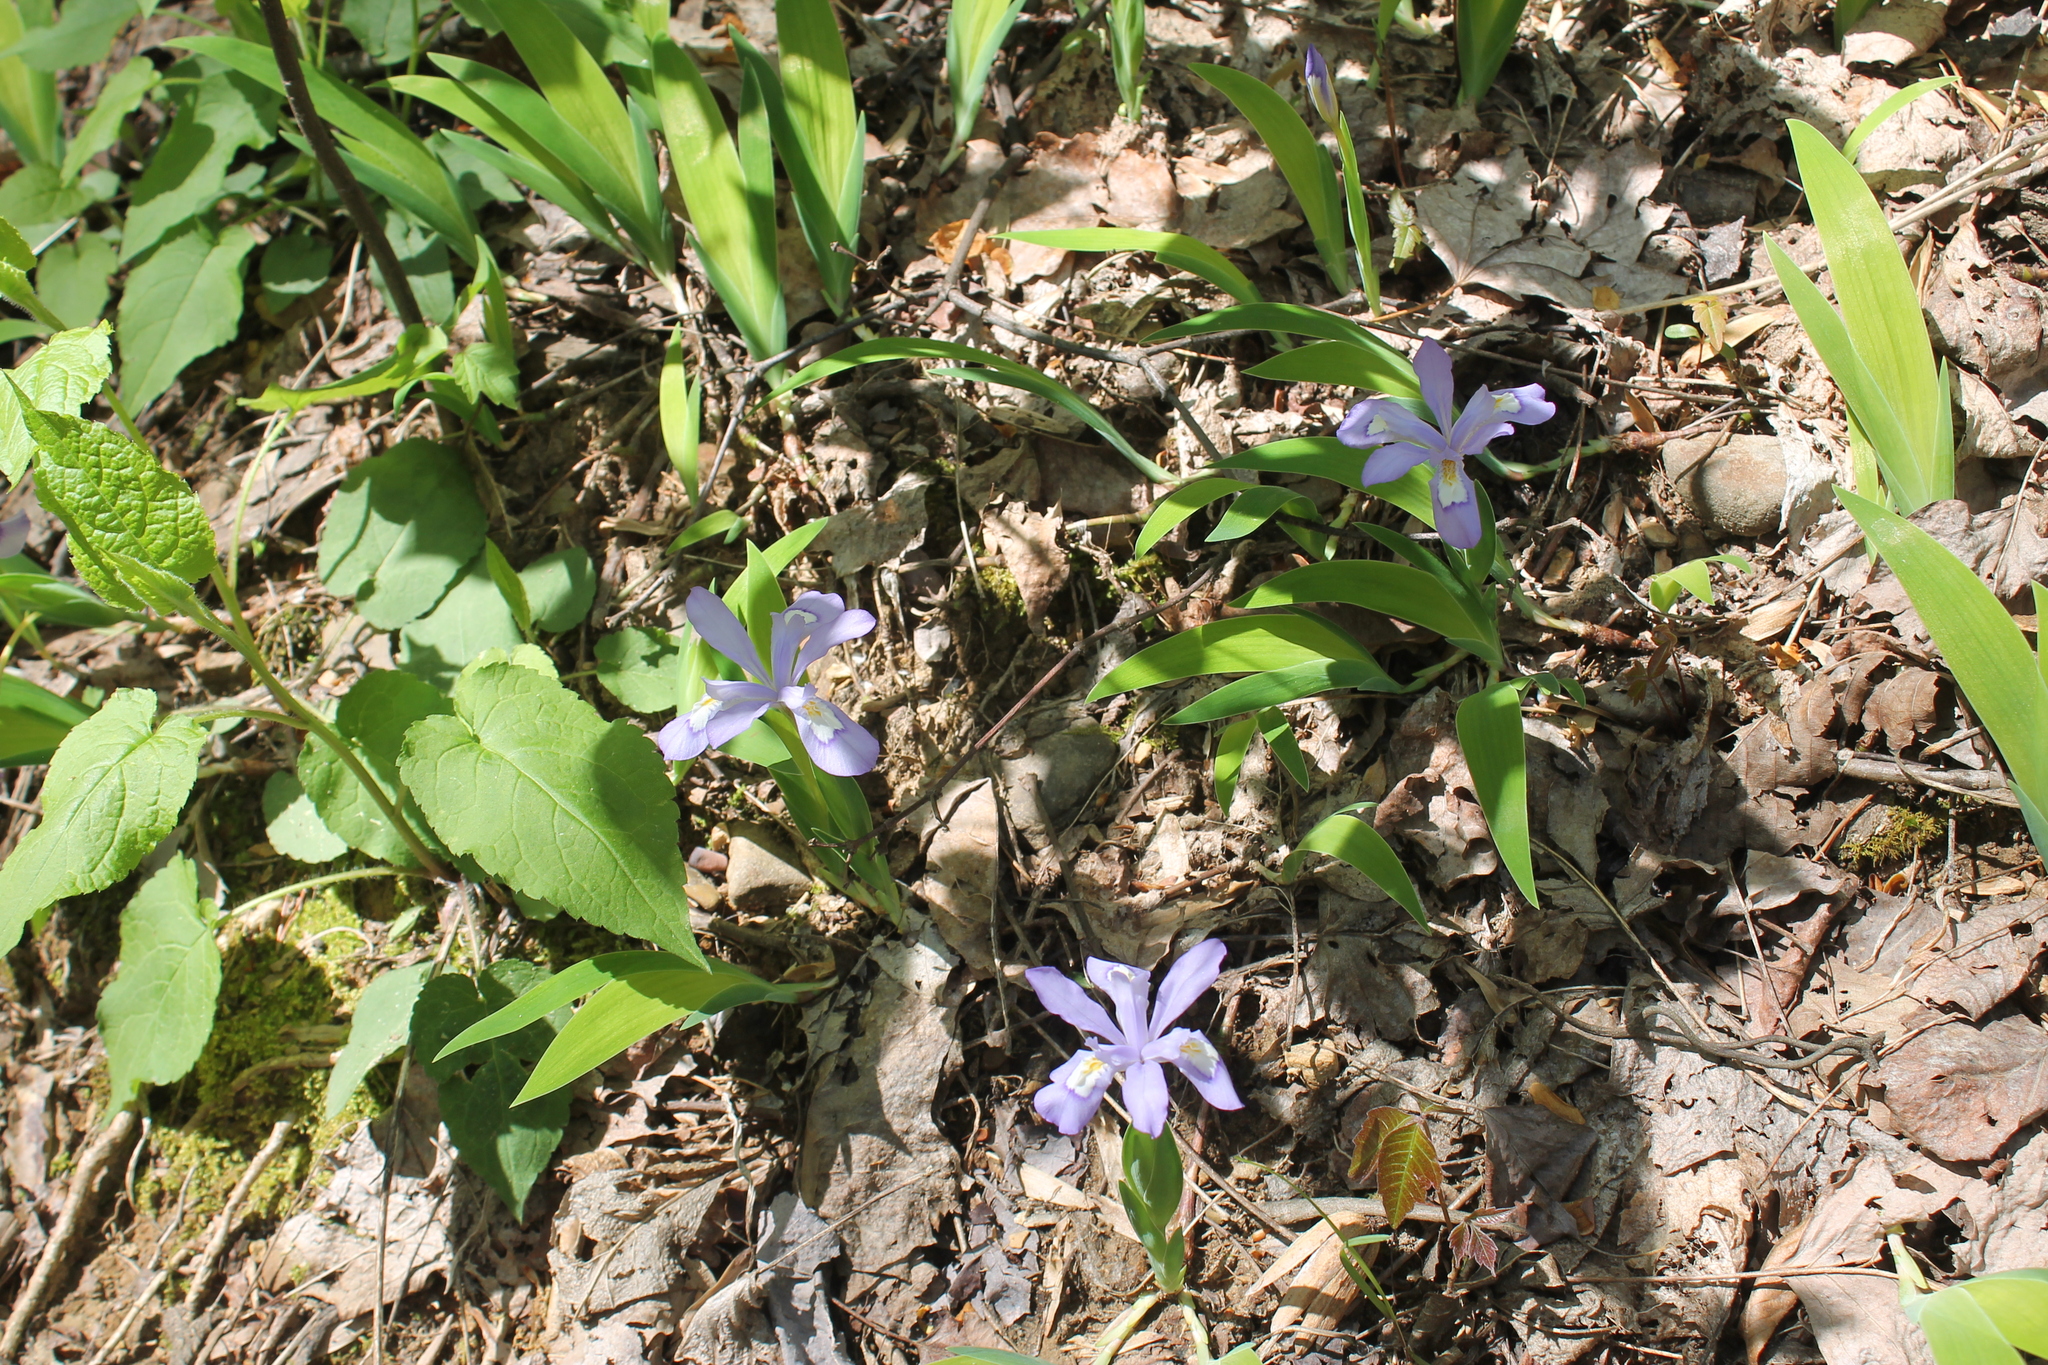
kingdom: Plantae
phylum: Tracheophyta
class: Liliopsida
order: Asparagales
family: Iridaceae
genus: Iris
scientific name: Iris cristata
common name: Crested iris
